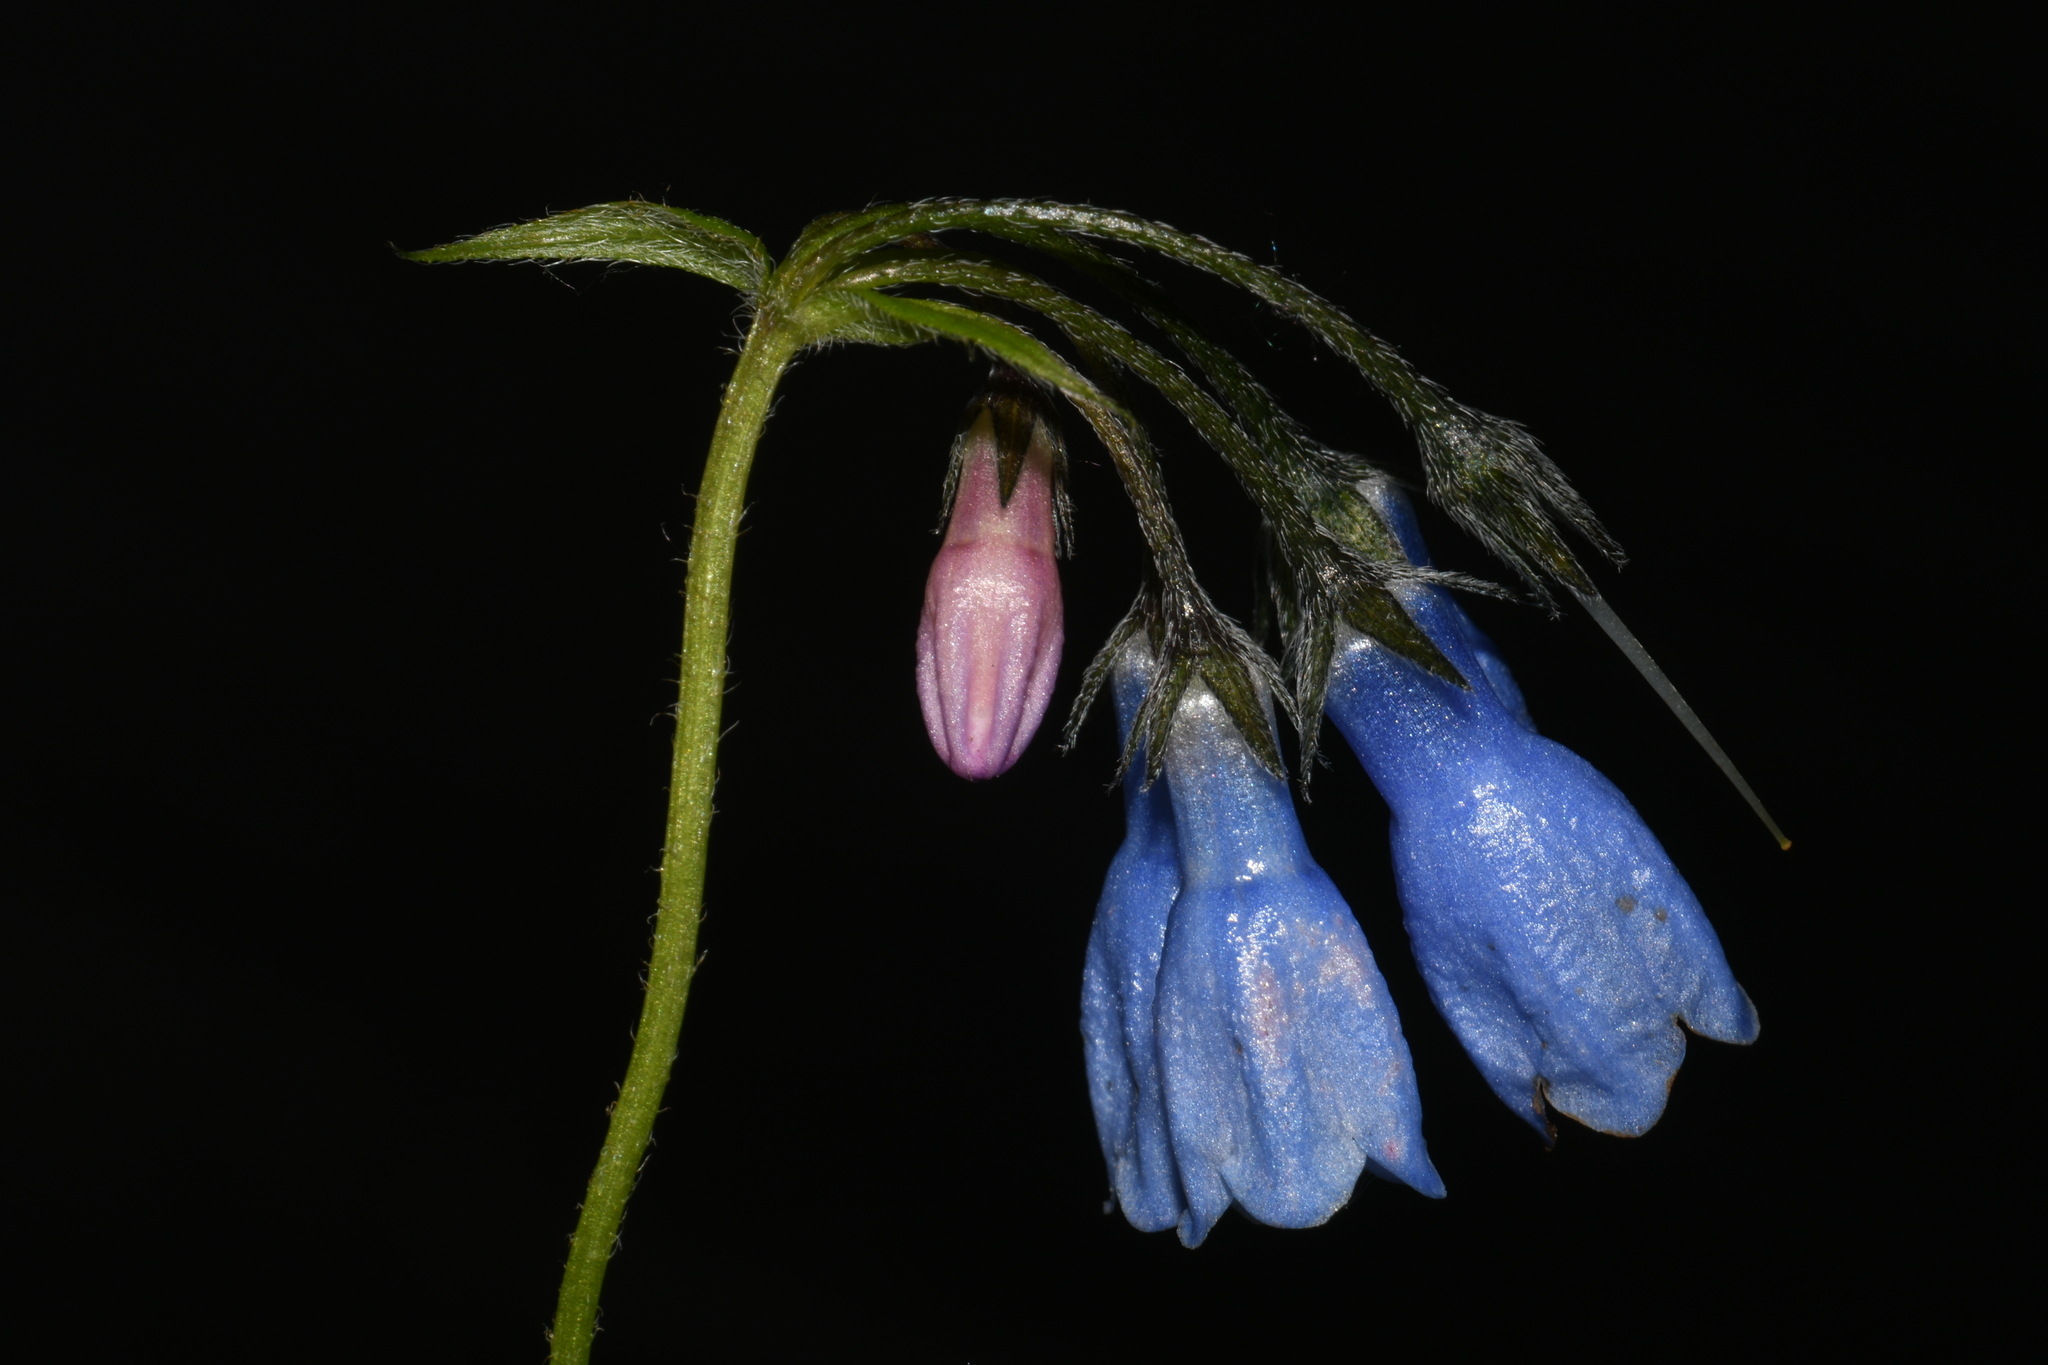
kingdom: Plantae
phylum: Tracheophyta
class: Magnoliopsida
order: Boraginales
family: Boraginaceae
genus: Mertensia
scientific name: Mertensia paniculata
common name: Panicled bluebells
